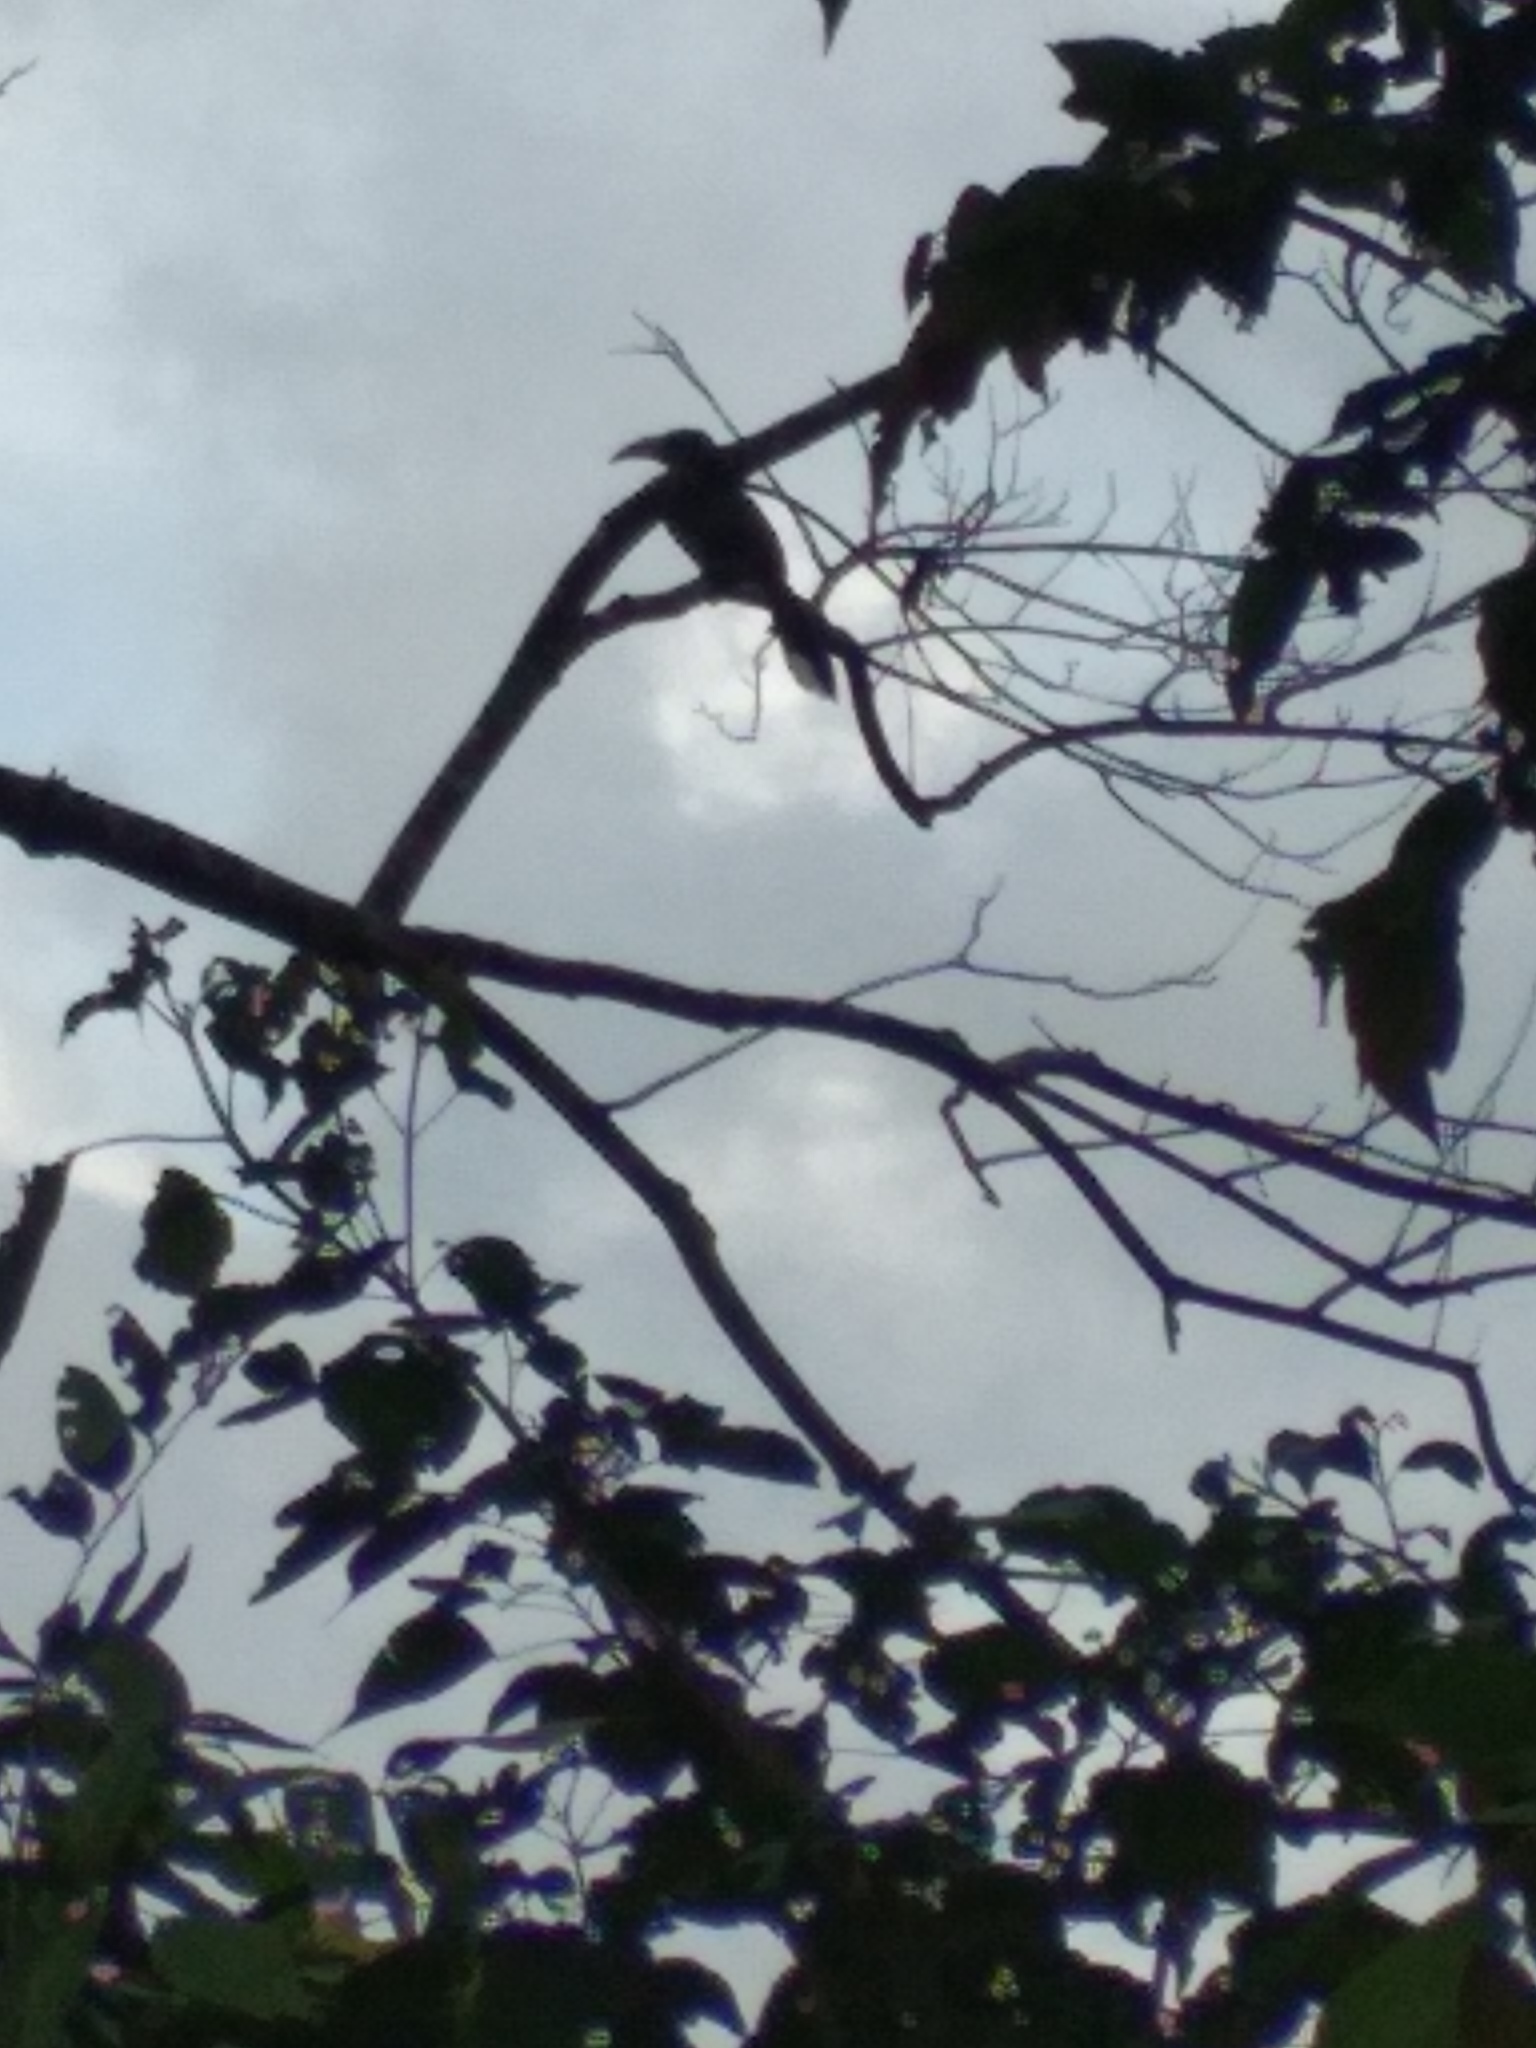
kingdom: Animalia
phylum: Chordata
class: Aves
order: Bucerotiformes
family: Bucerotidae
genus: Ocyceros
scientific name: Ocyceros griseus
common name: Malabar grey hornbill
